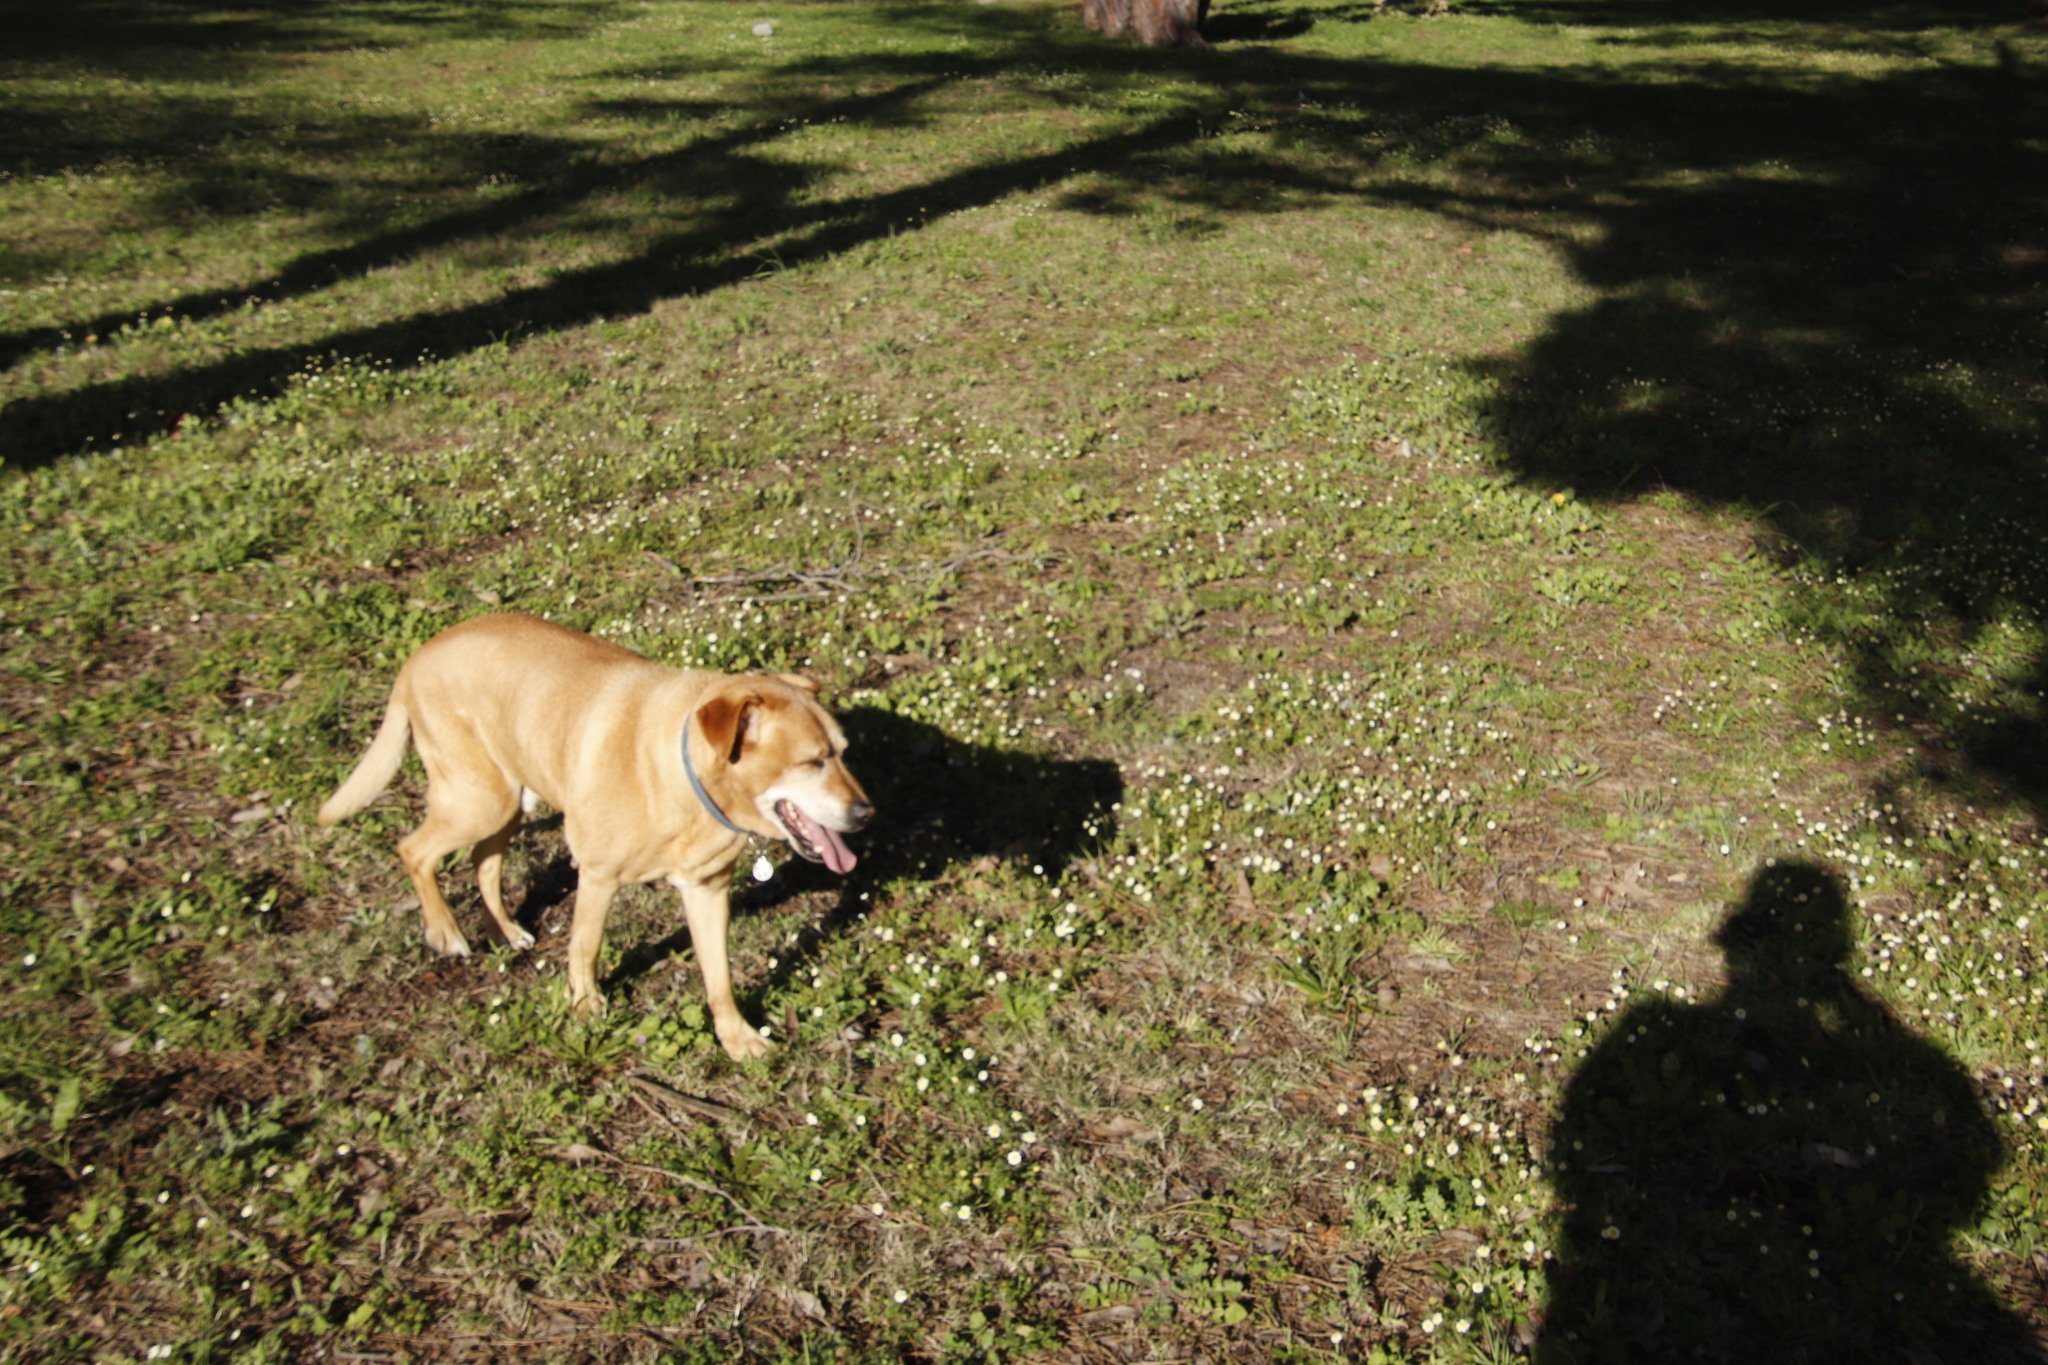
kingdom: Plantae
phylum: Tracheophyta
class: Magnoliopsida
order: Asterales
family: Asteraceae
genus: Cotula
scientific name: Cotula turbinata
